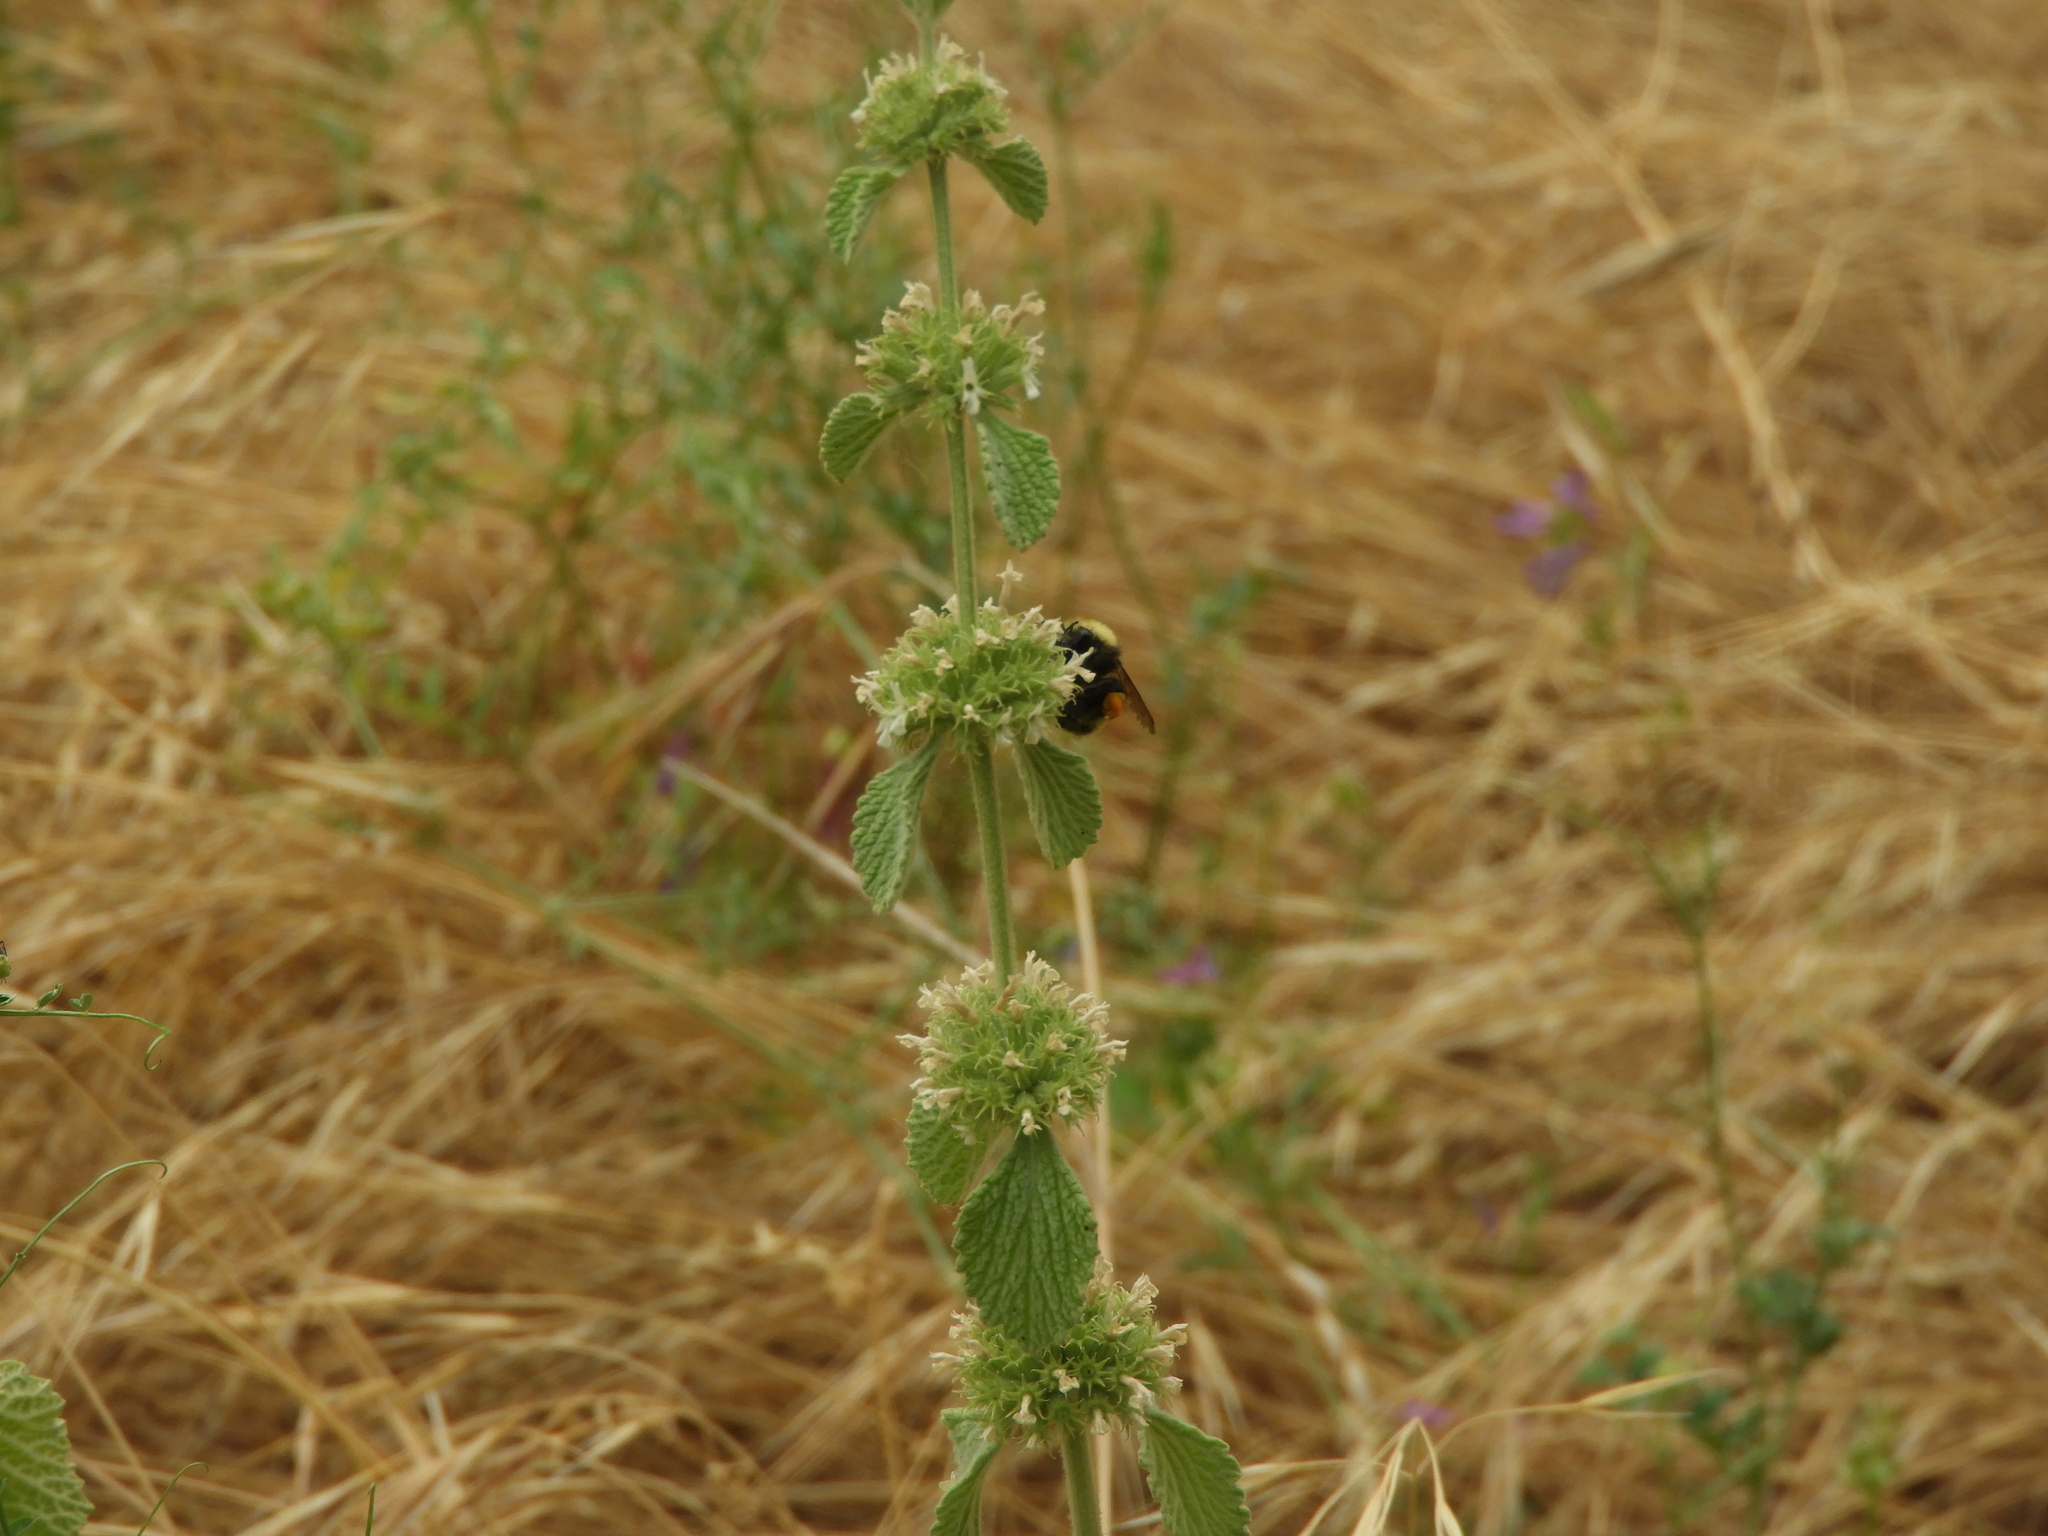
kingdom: Plantae
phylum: Tracheophyta
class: Magnoliopsida
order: Lamiales
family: Lamiaceae
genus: Marrubium
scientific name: Marrubium vulgare
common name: Horehound
